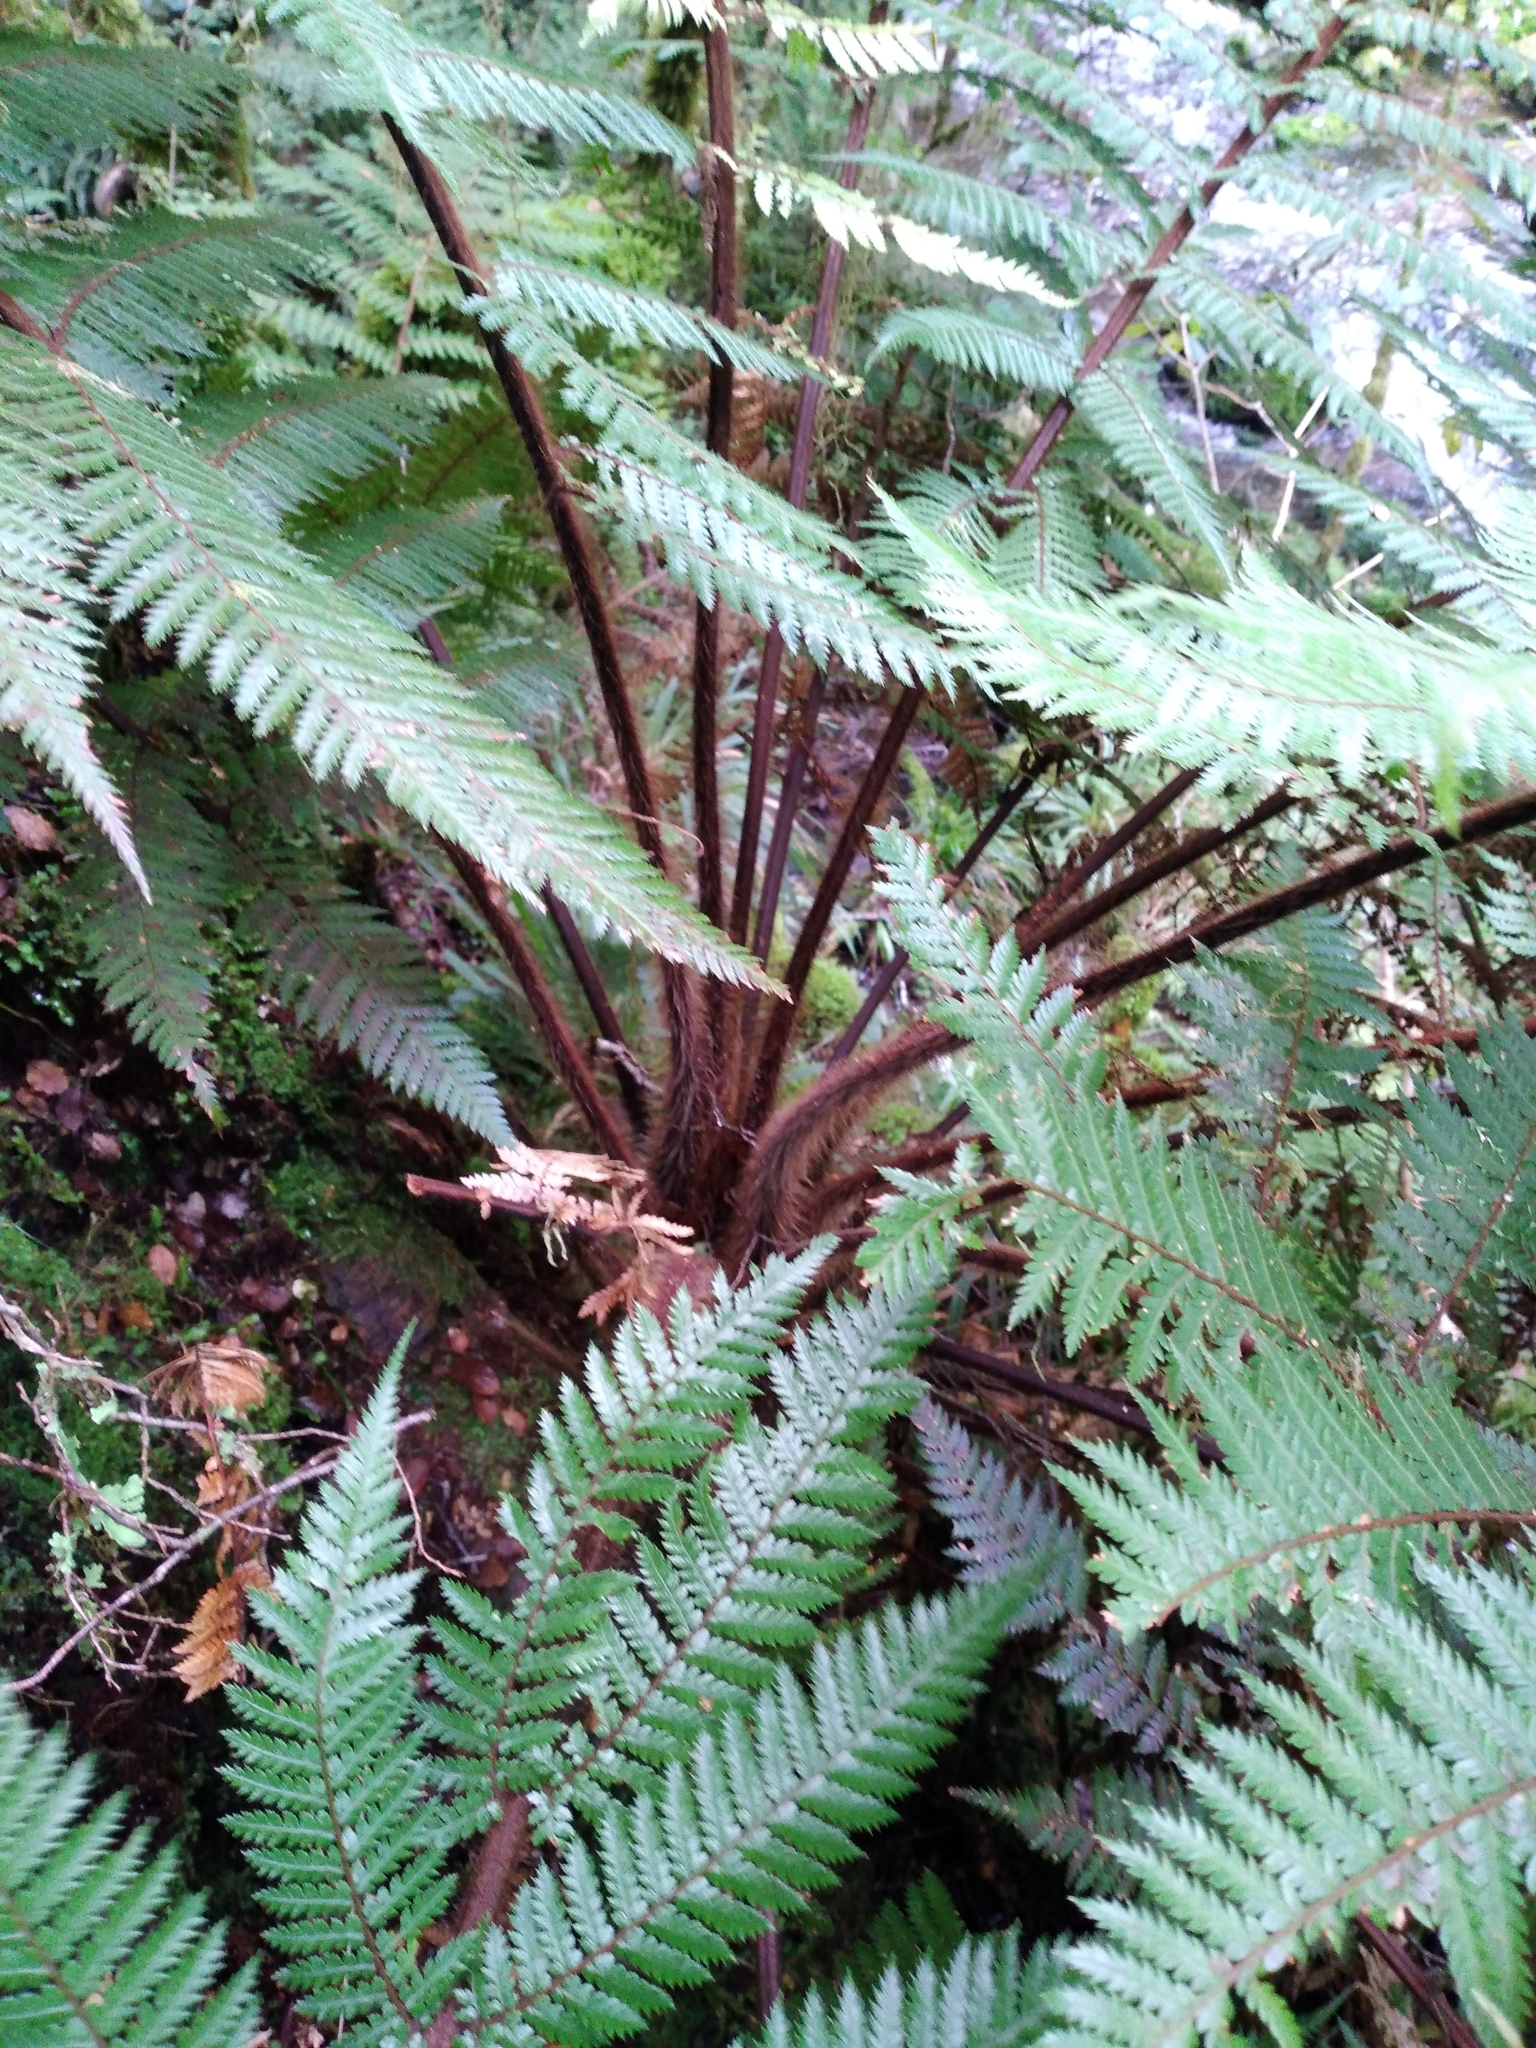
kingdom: Plantae
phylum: Tracheophyta
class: Polypodiopsida
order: Cyatheales
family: Dicksoniaceae
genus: Dicksonia
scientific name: Dicksonia squarrosa
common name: Hard treefern
